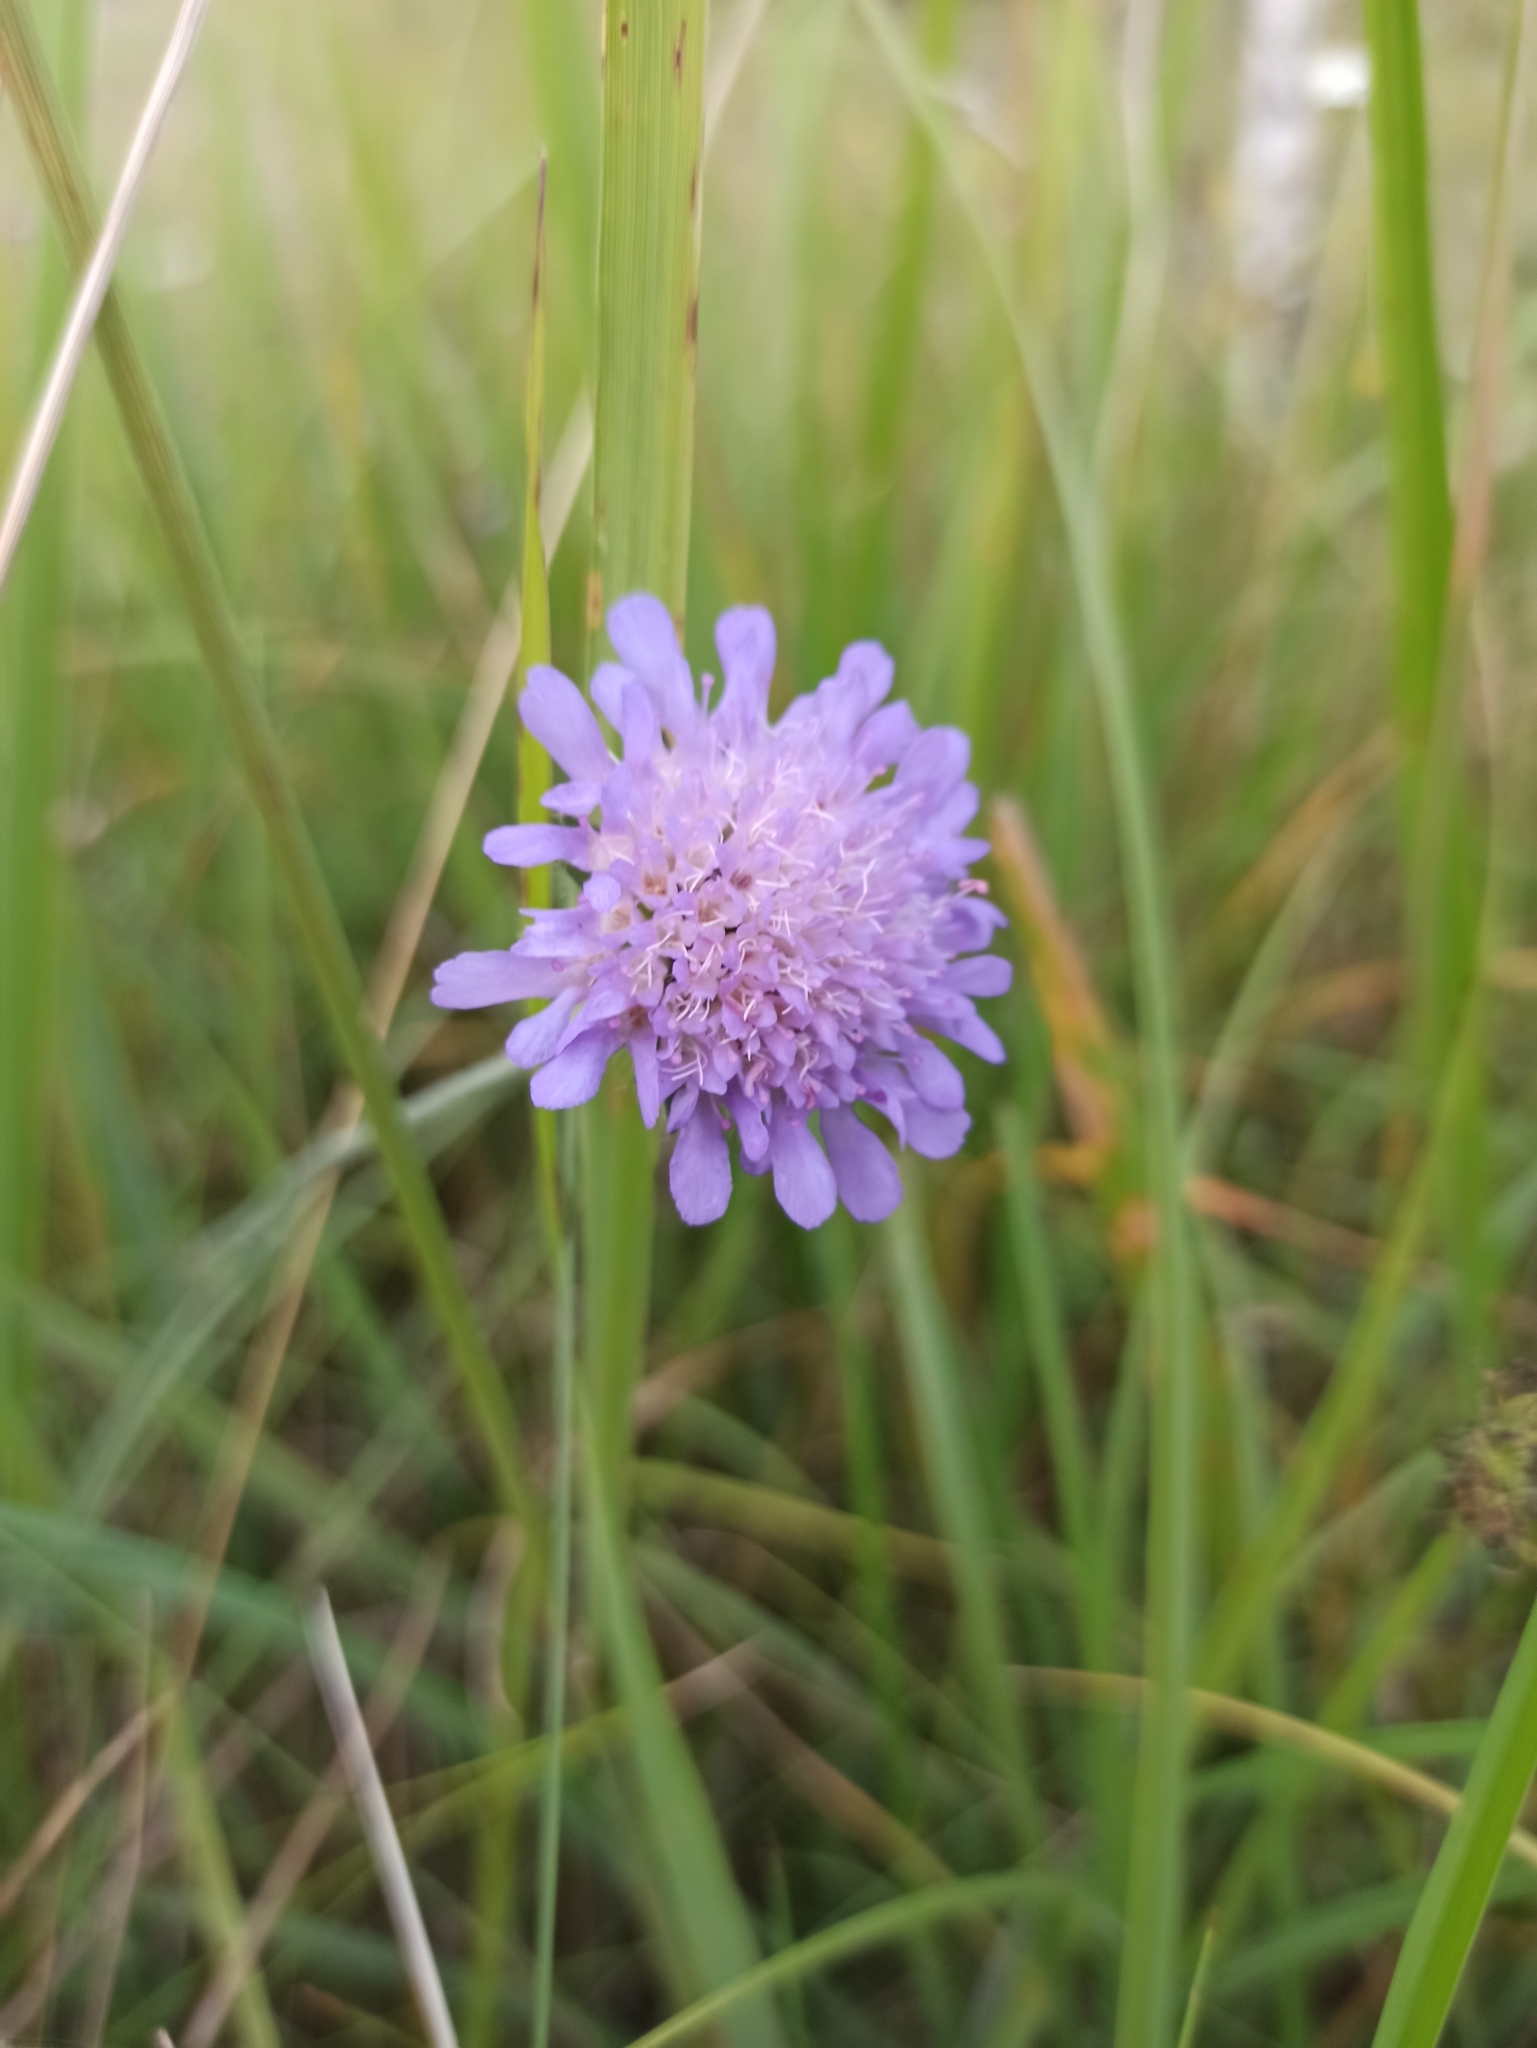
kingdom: Plantae
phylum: Tracheophyta
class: Magnoliopsida
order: Dipsacales
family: Caprifoliaceae
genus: Knautia
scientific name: Knautia arvensis
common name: Field scabiosa
